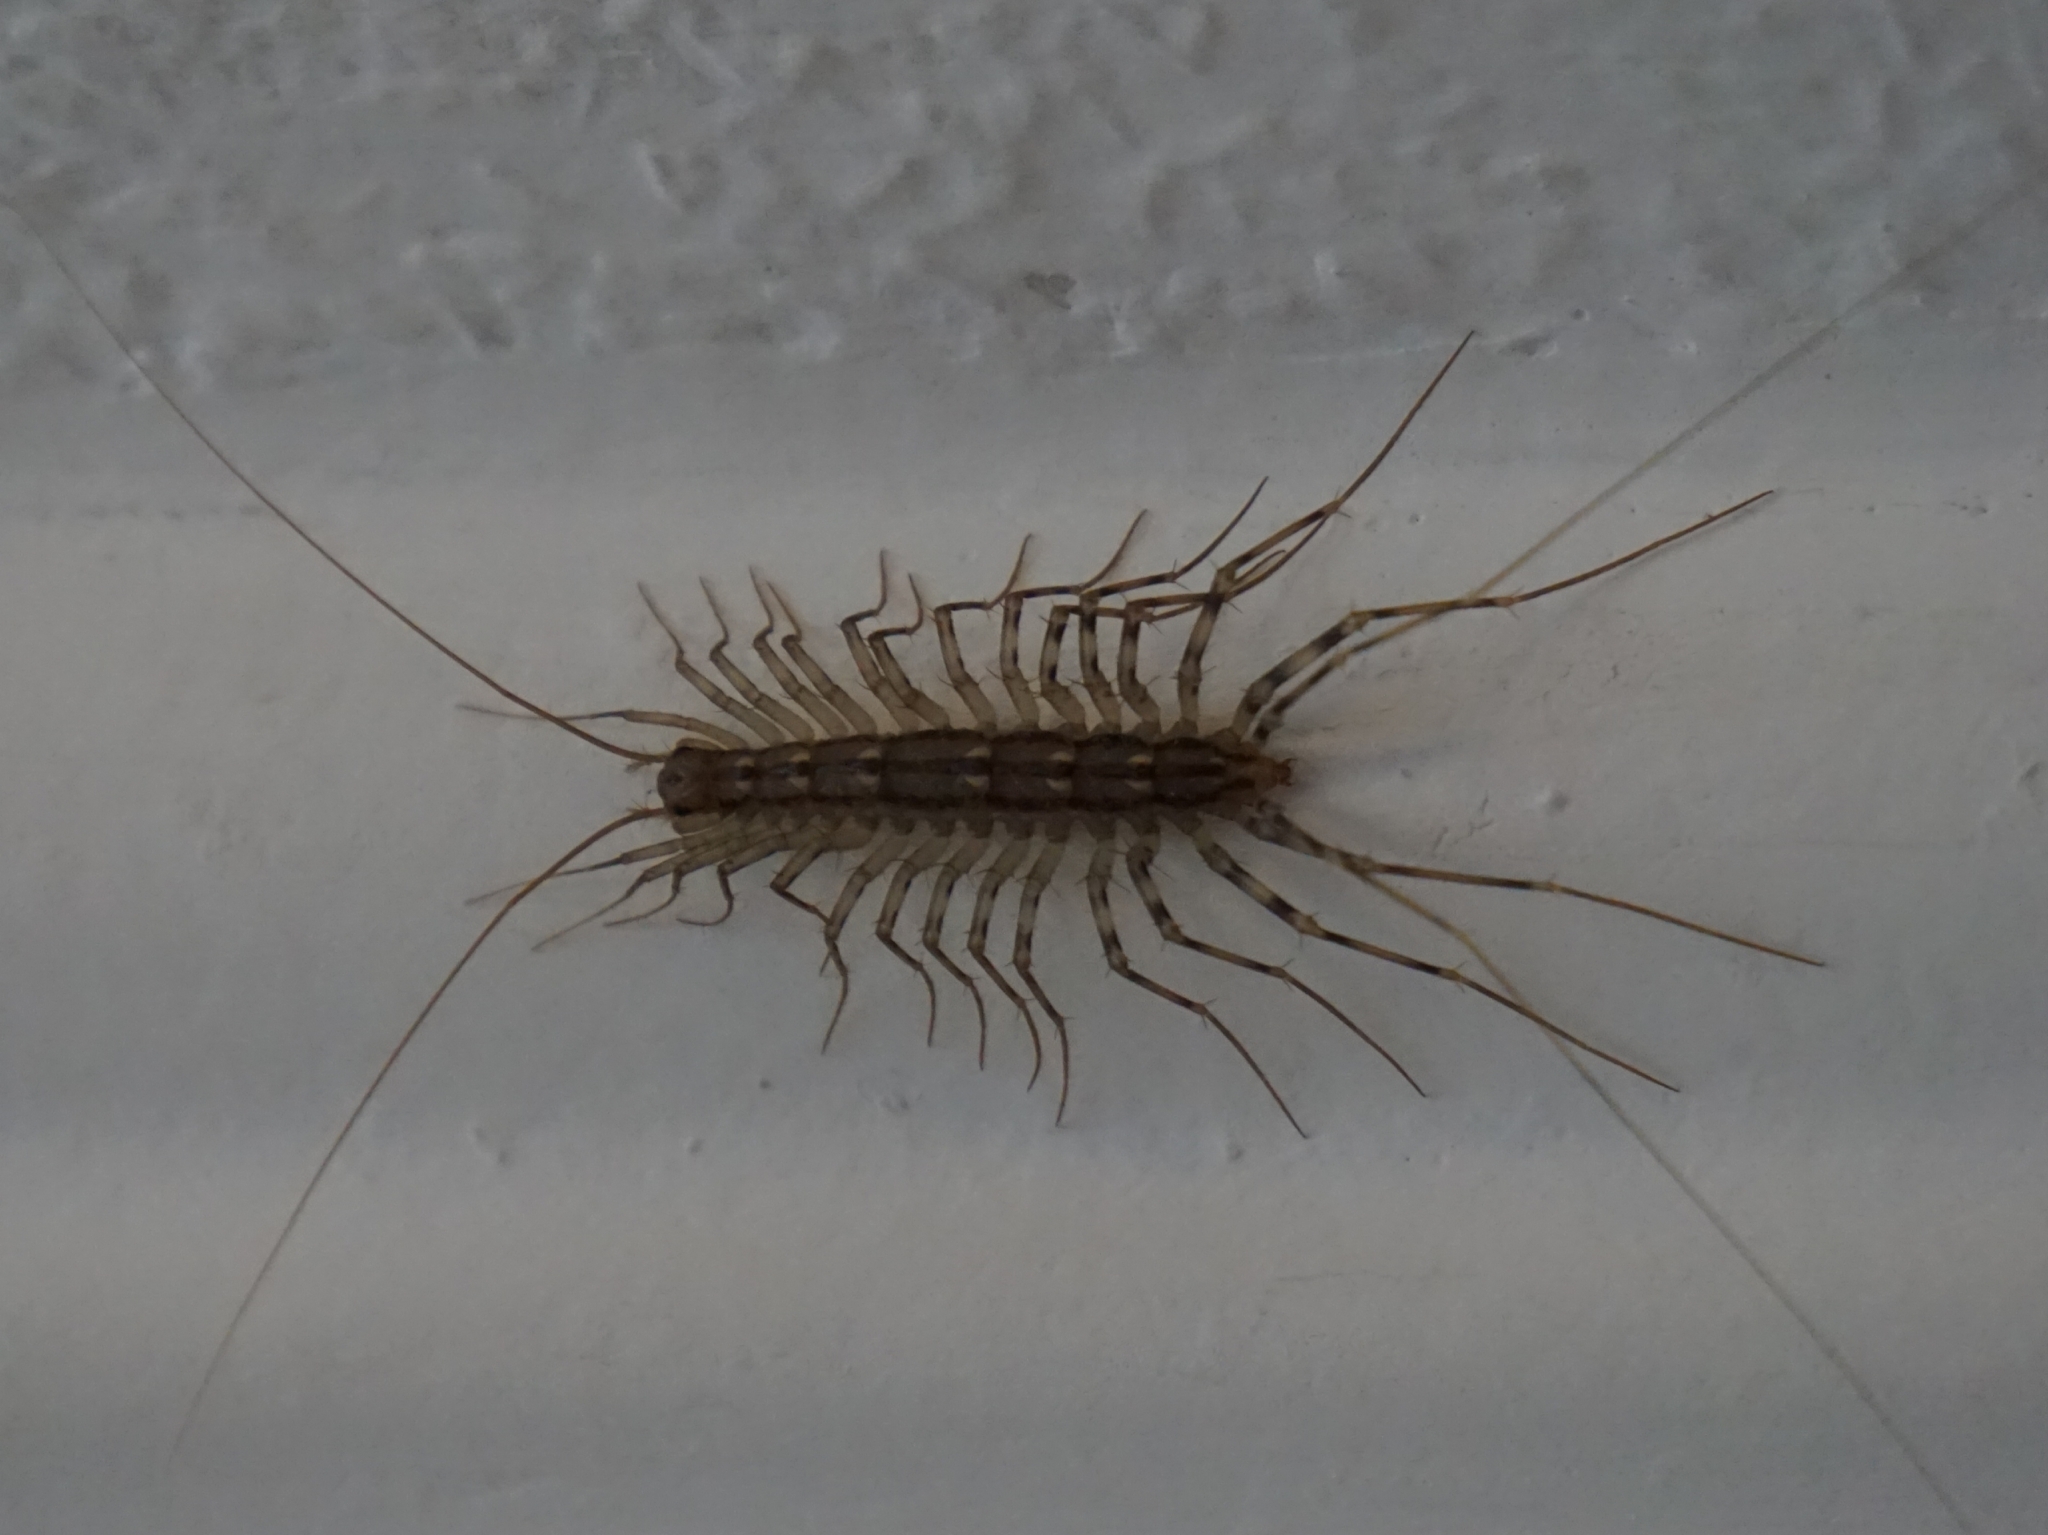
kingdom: Animalia
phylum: Arthropoda
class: Chilopoda
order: Scutigeromorpha
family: Scutigeridae
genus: Scutigera
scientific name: Scutigera coleoptrata
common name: House centipede
